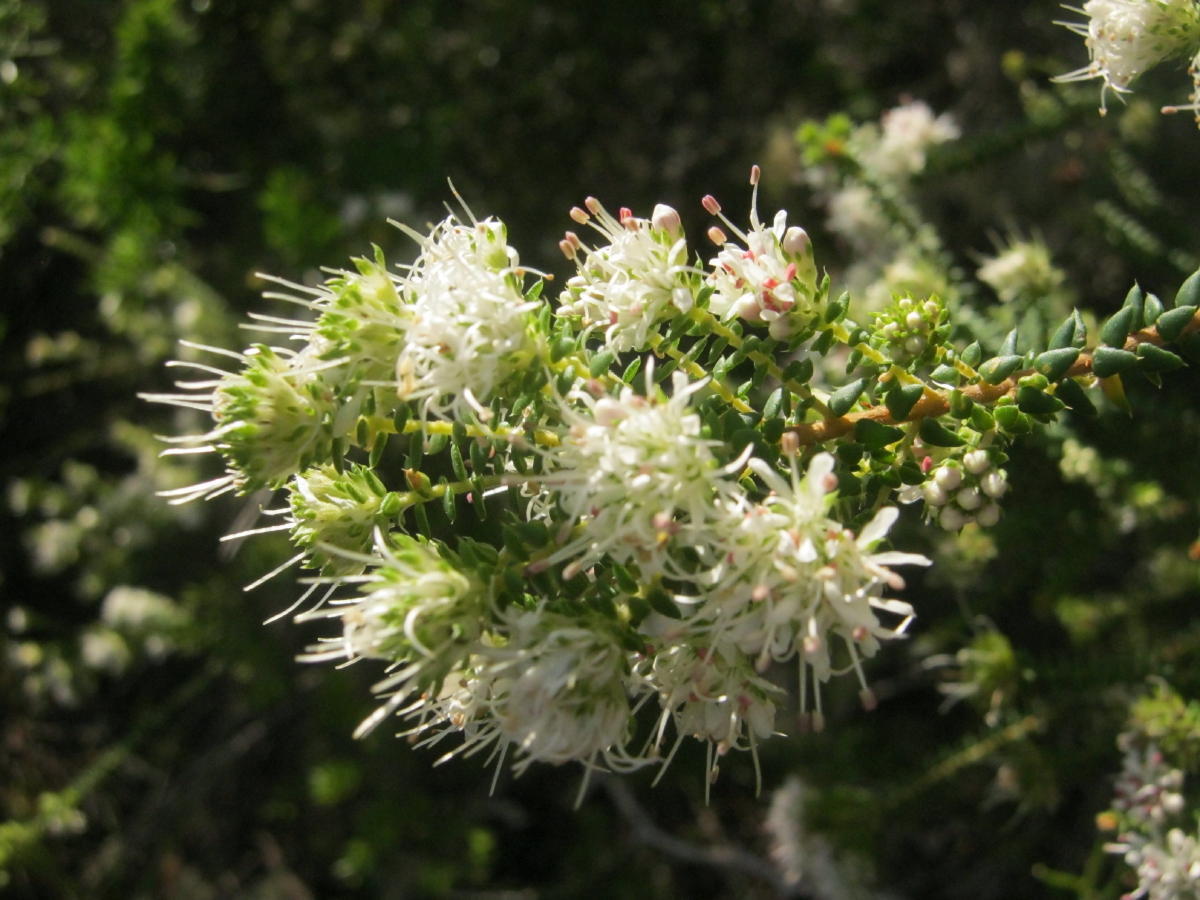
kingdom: Plantae
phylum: Tracheophyta
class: Magnoliopsida
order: Sapindales
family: Rutaceae
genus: Agathosma
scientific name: Agathosma apiculata
